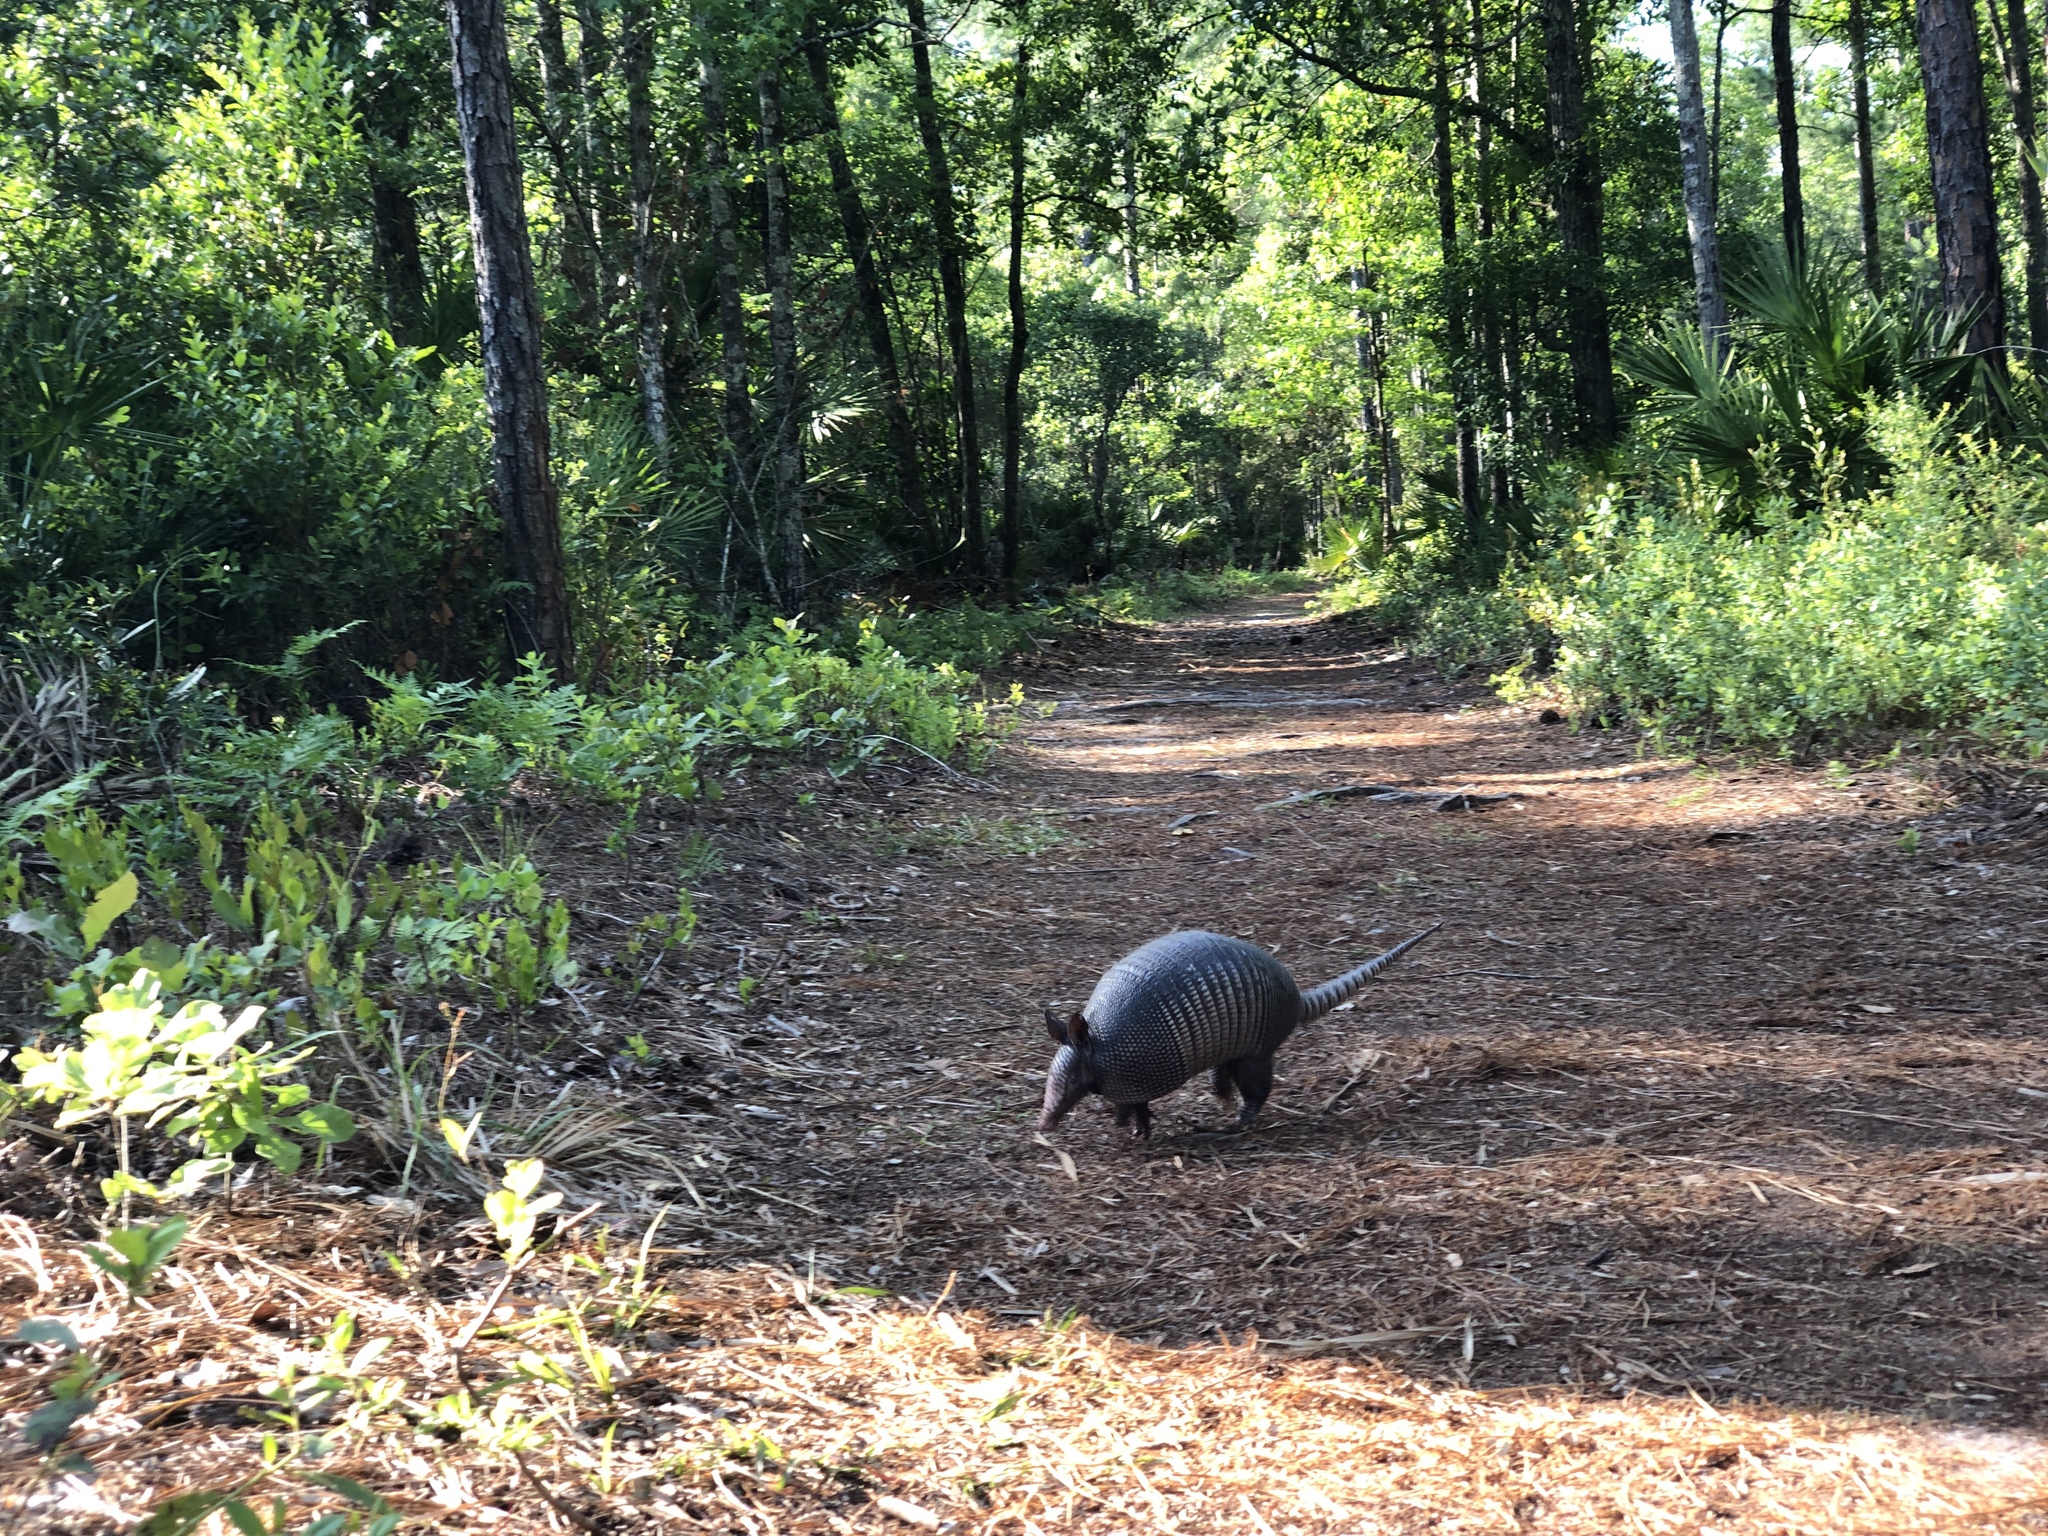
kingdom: Animalia
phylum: Chordata
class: Mammalia
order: Cingulata
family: Dasypodidae
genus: Dasypus
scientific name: Dasypus novemcinctus
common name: Nine-banded armadillo
